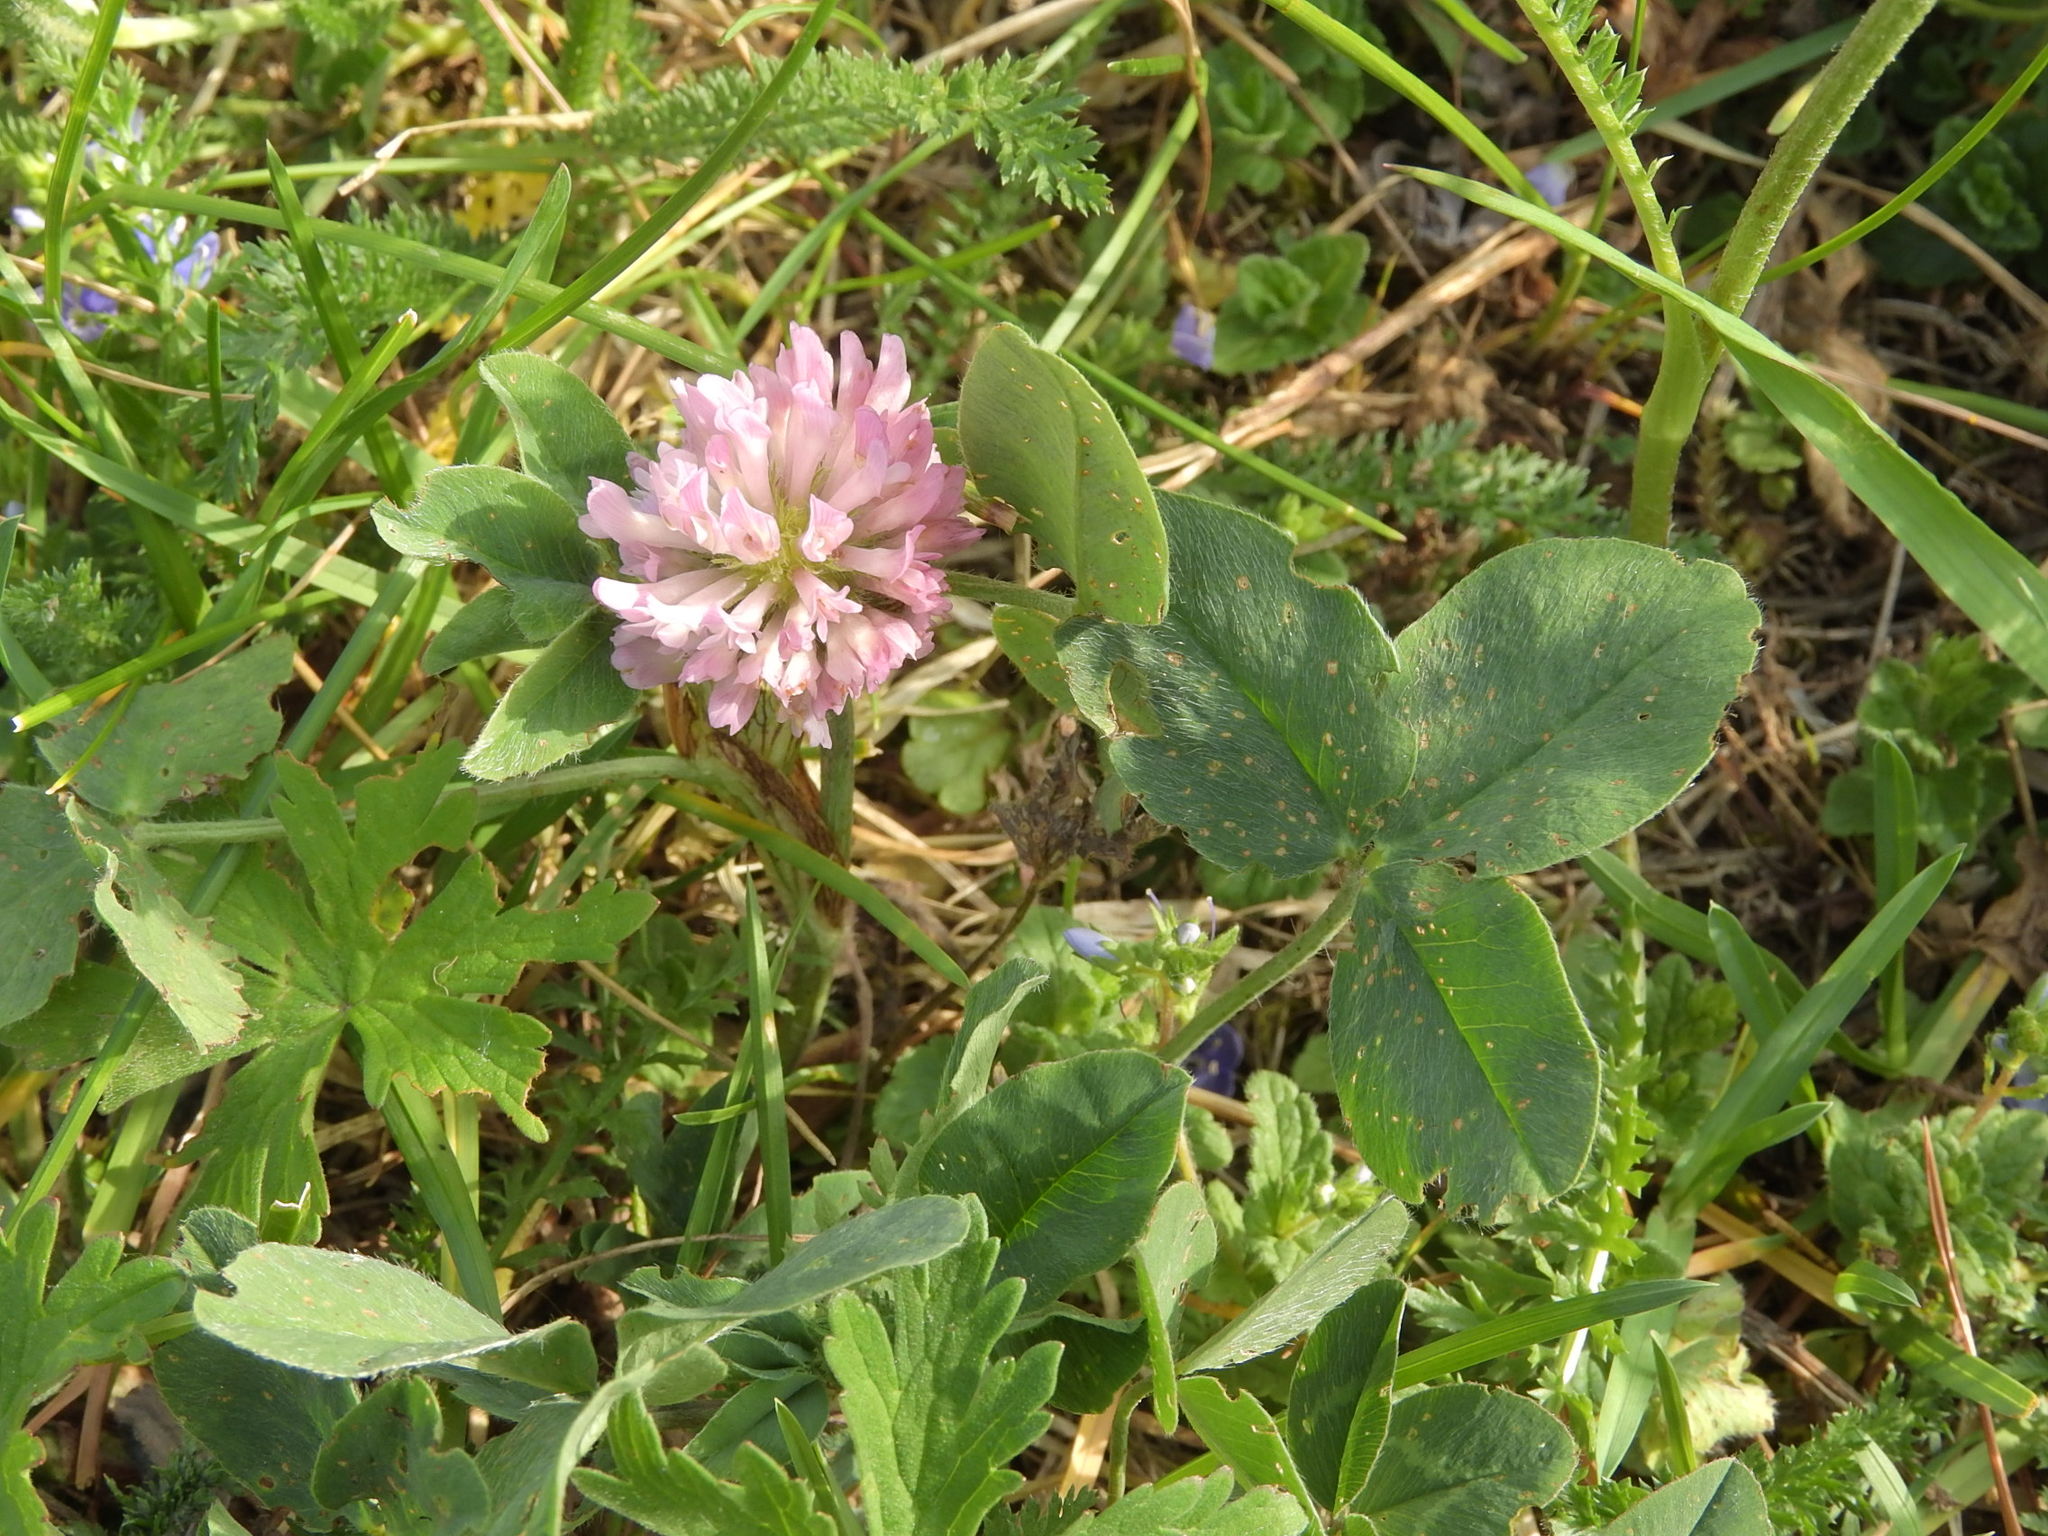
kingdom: Plantae
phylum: Tracheophyta
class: Magnoliopsida
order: Fabales
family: Fabaceae
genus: Trifolium
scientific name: Trifolium pratense
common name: Red clover
